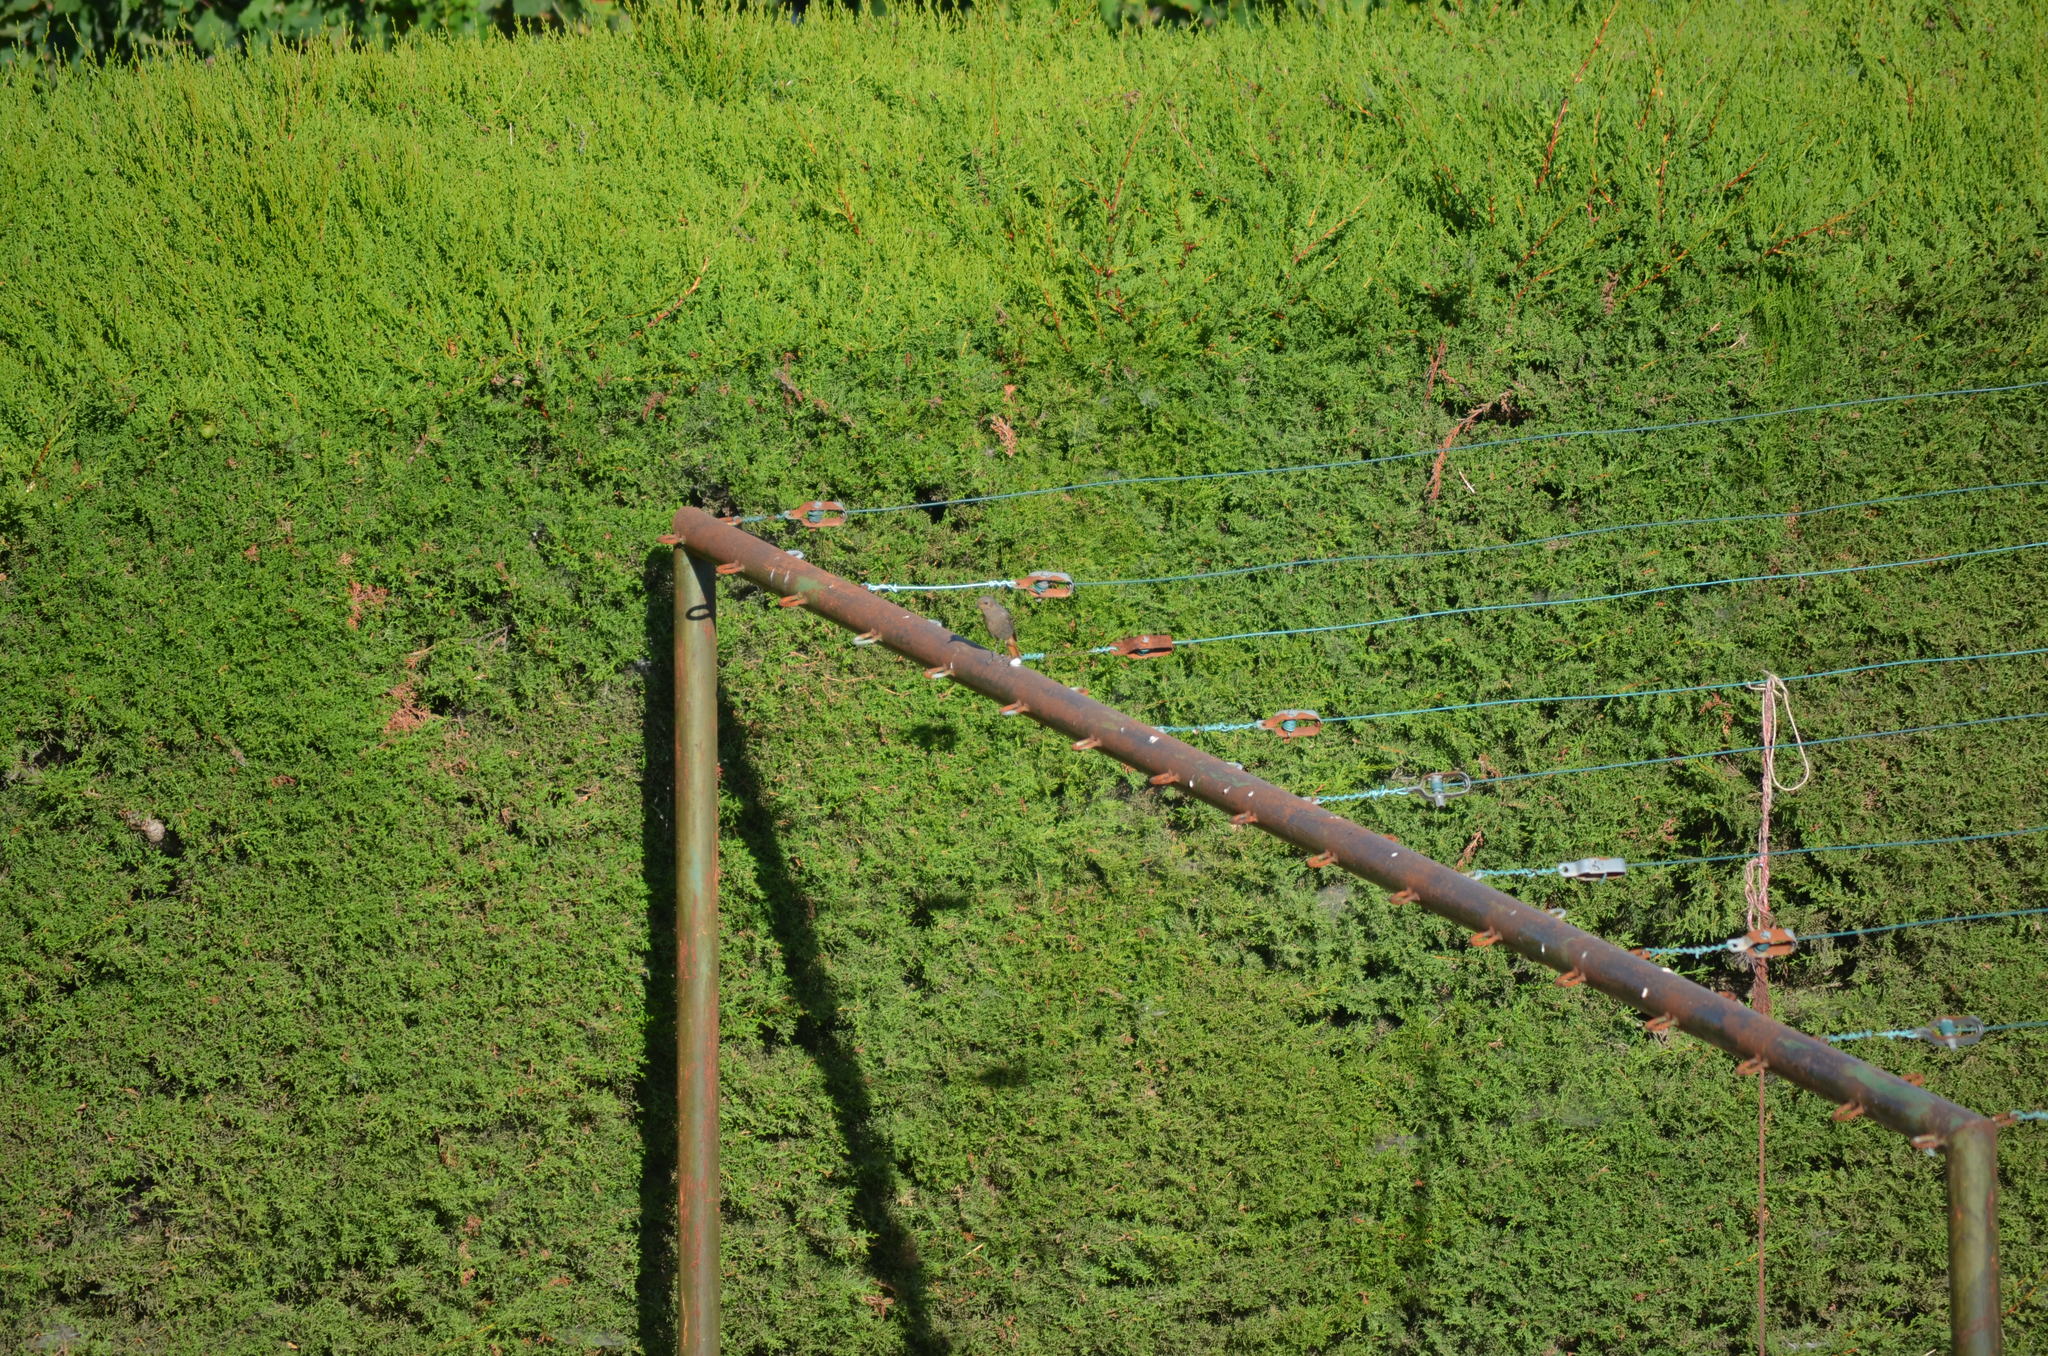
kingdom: Animalia
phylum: Chordata
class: Aves
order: Passeriformes
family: Muscicapidae
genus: Phoenicurus
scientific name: Phoenicurus ochruros
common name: Black redstart
